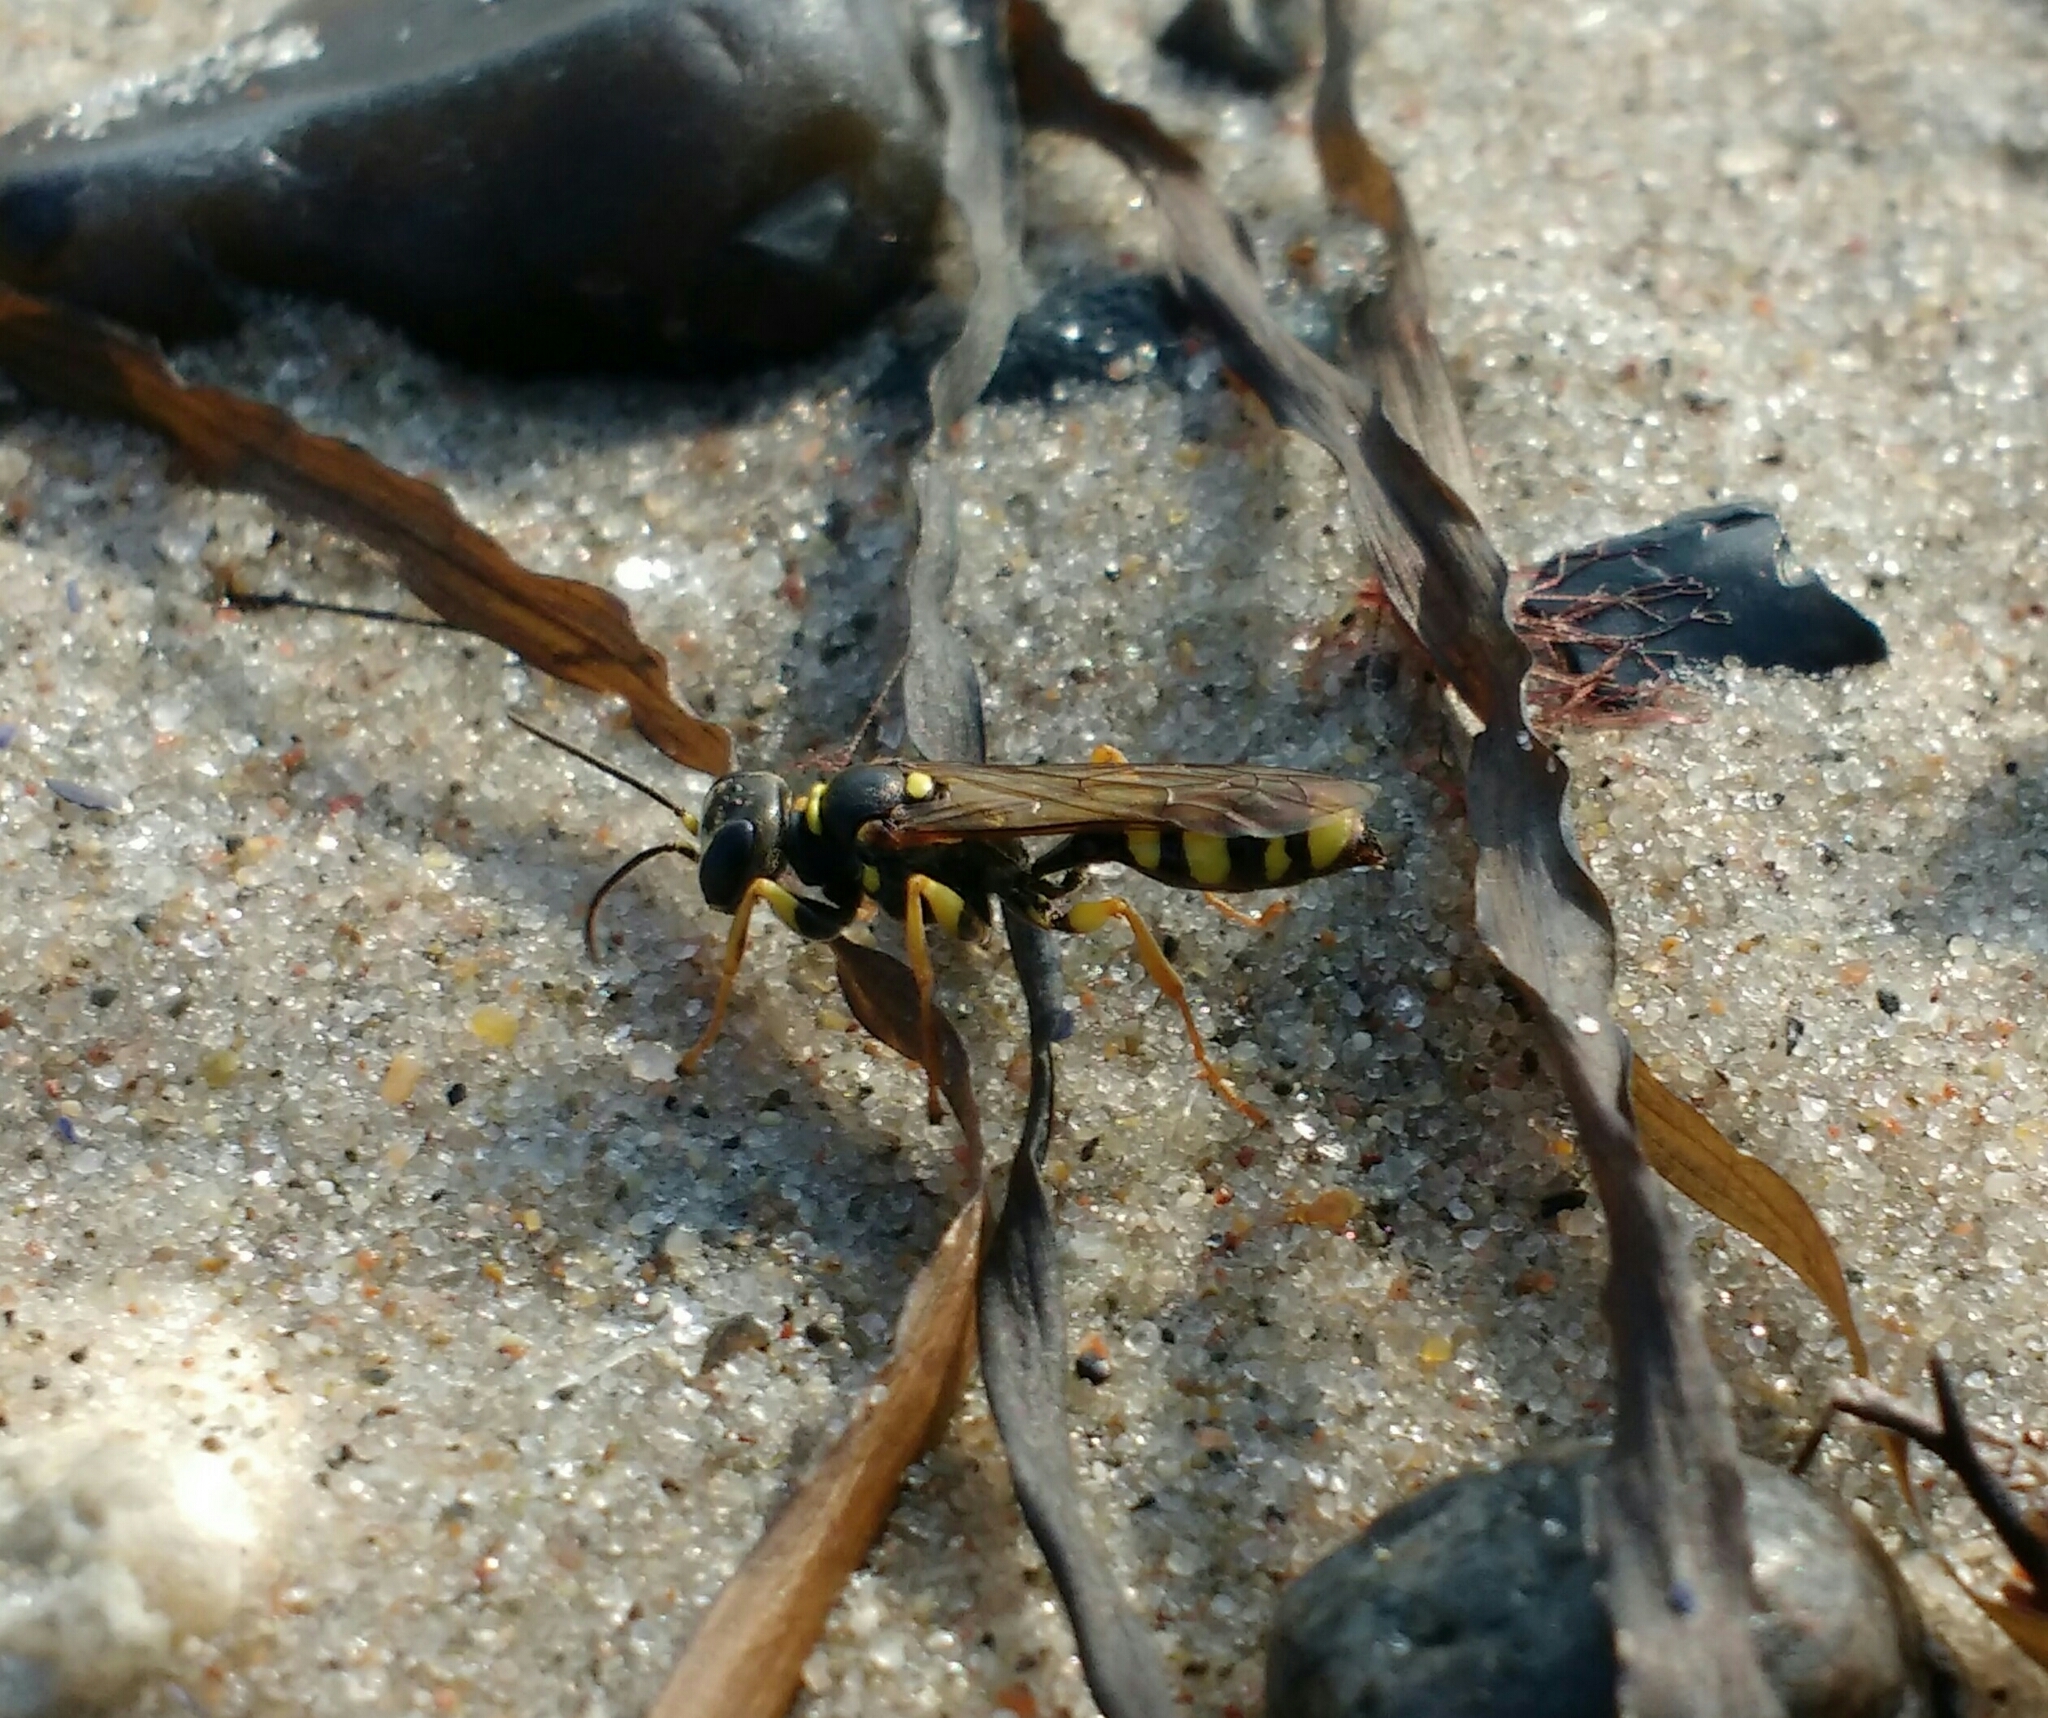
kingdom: Animalia
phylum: Arthropoda
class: Insecta
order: Hymenoptera
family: Crabronidae
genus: Mellinus
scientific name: Mellinus arvensis
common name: Field digger wasp
